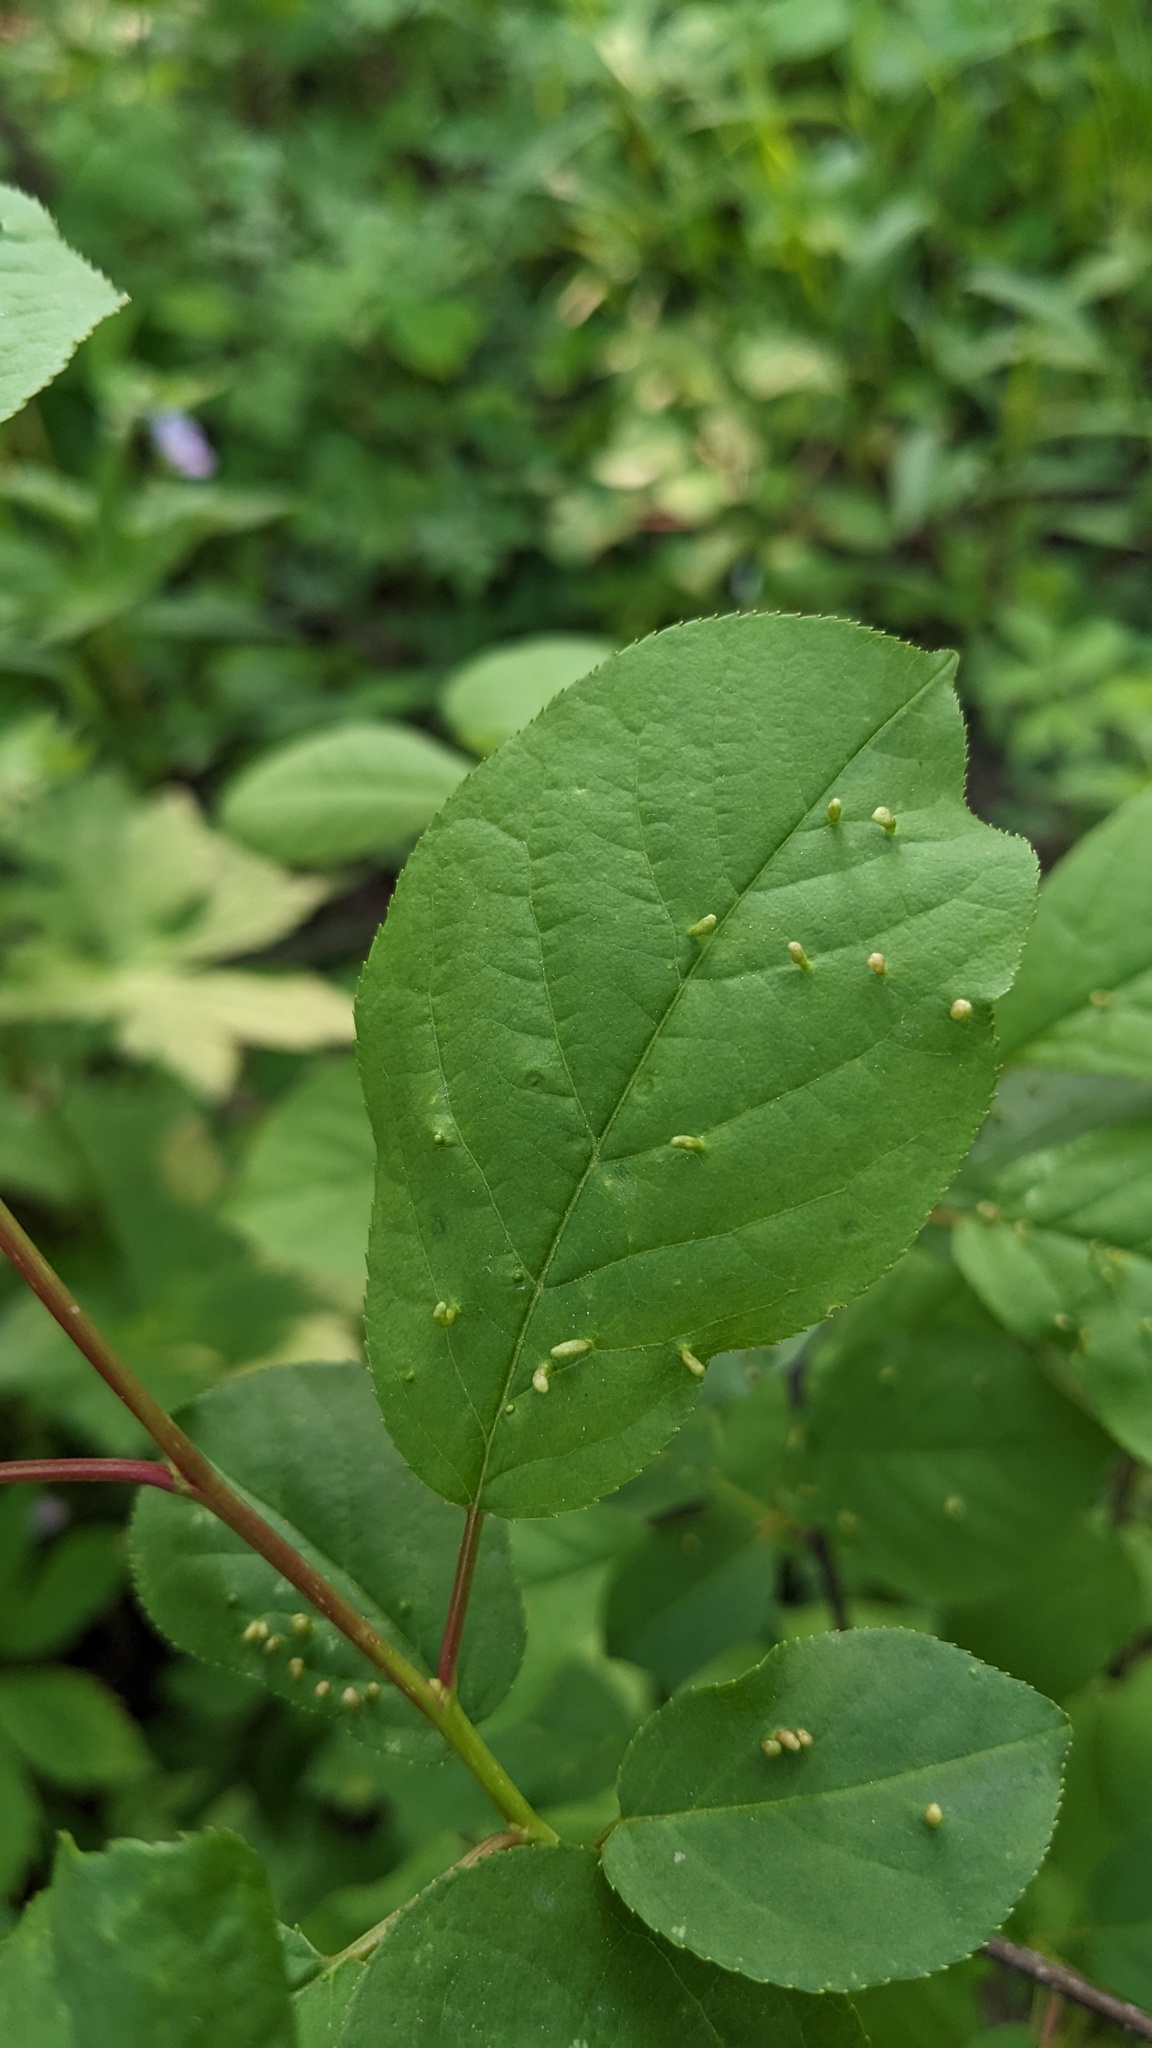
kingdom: Animalia
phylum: Arthropoda
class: Arachnida
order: Trombidiformes
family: Eriophyidae
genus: Eriophyes
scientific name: Eriophyes emarginatae
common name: Plum leaf gall mite
